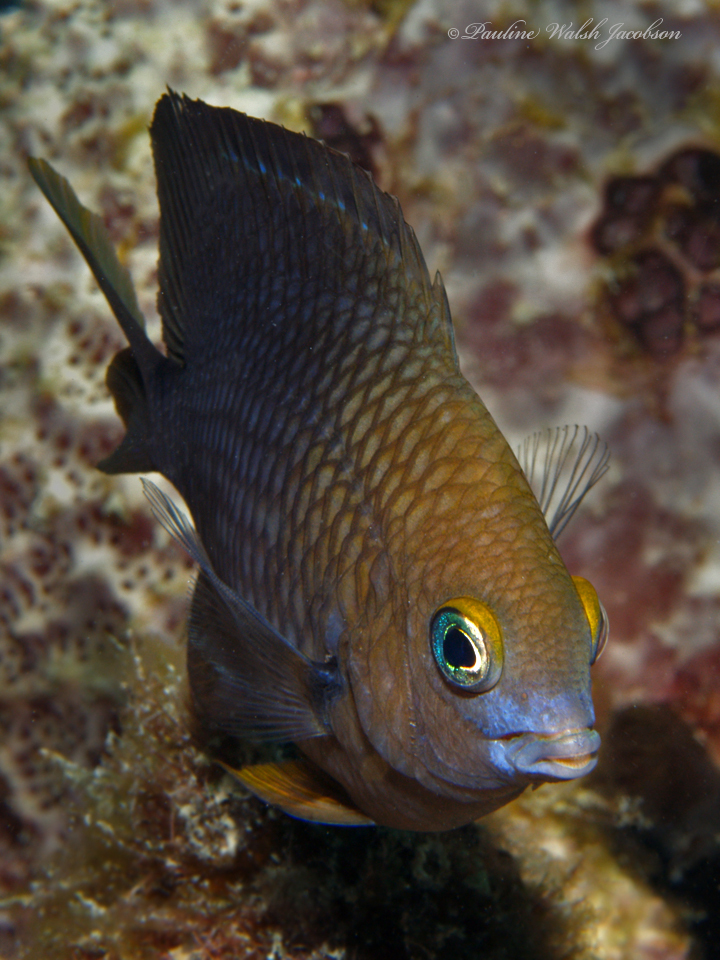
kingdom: Animalia
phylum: Chordata
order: Perciformes
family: Pomacentridae
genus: Stegastes
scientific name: Stegastes planifrons
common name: Threespot damselfish
